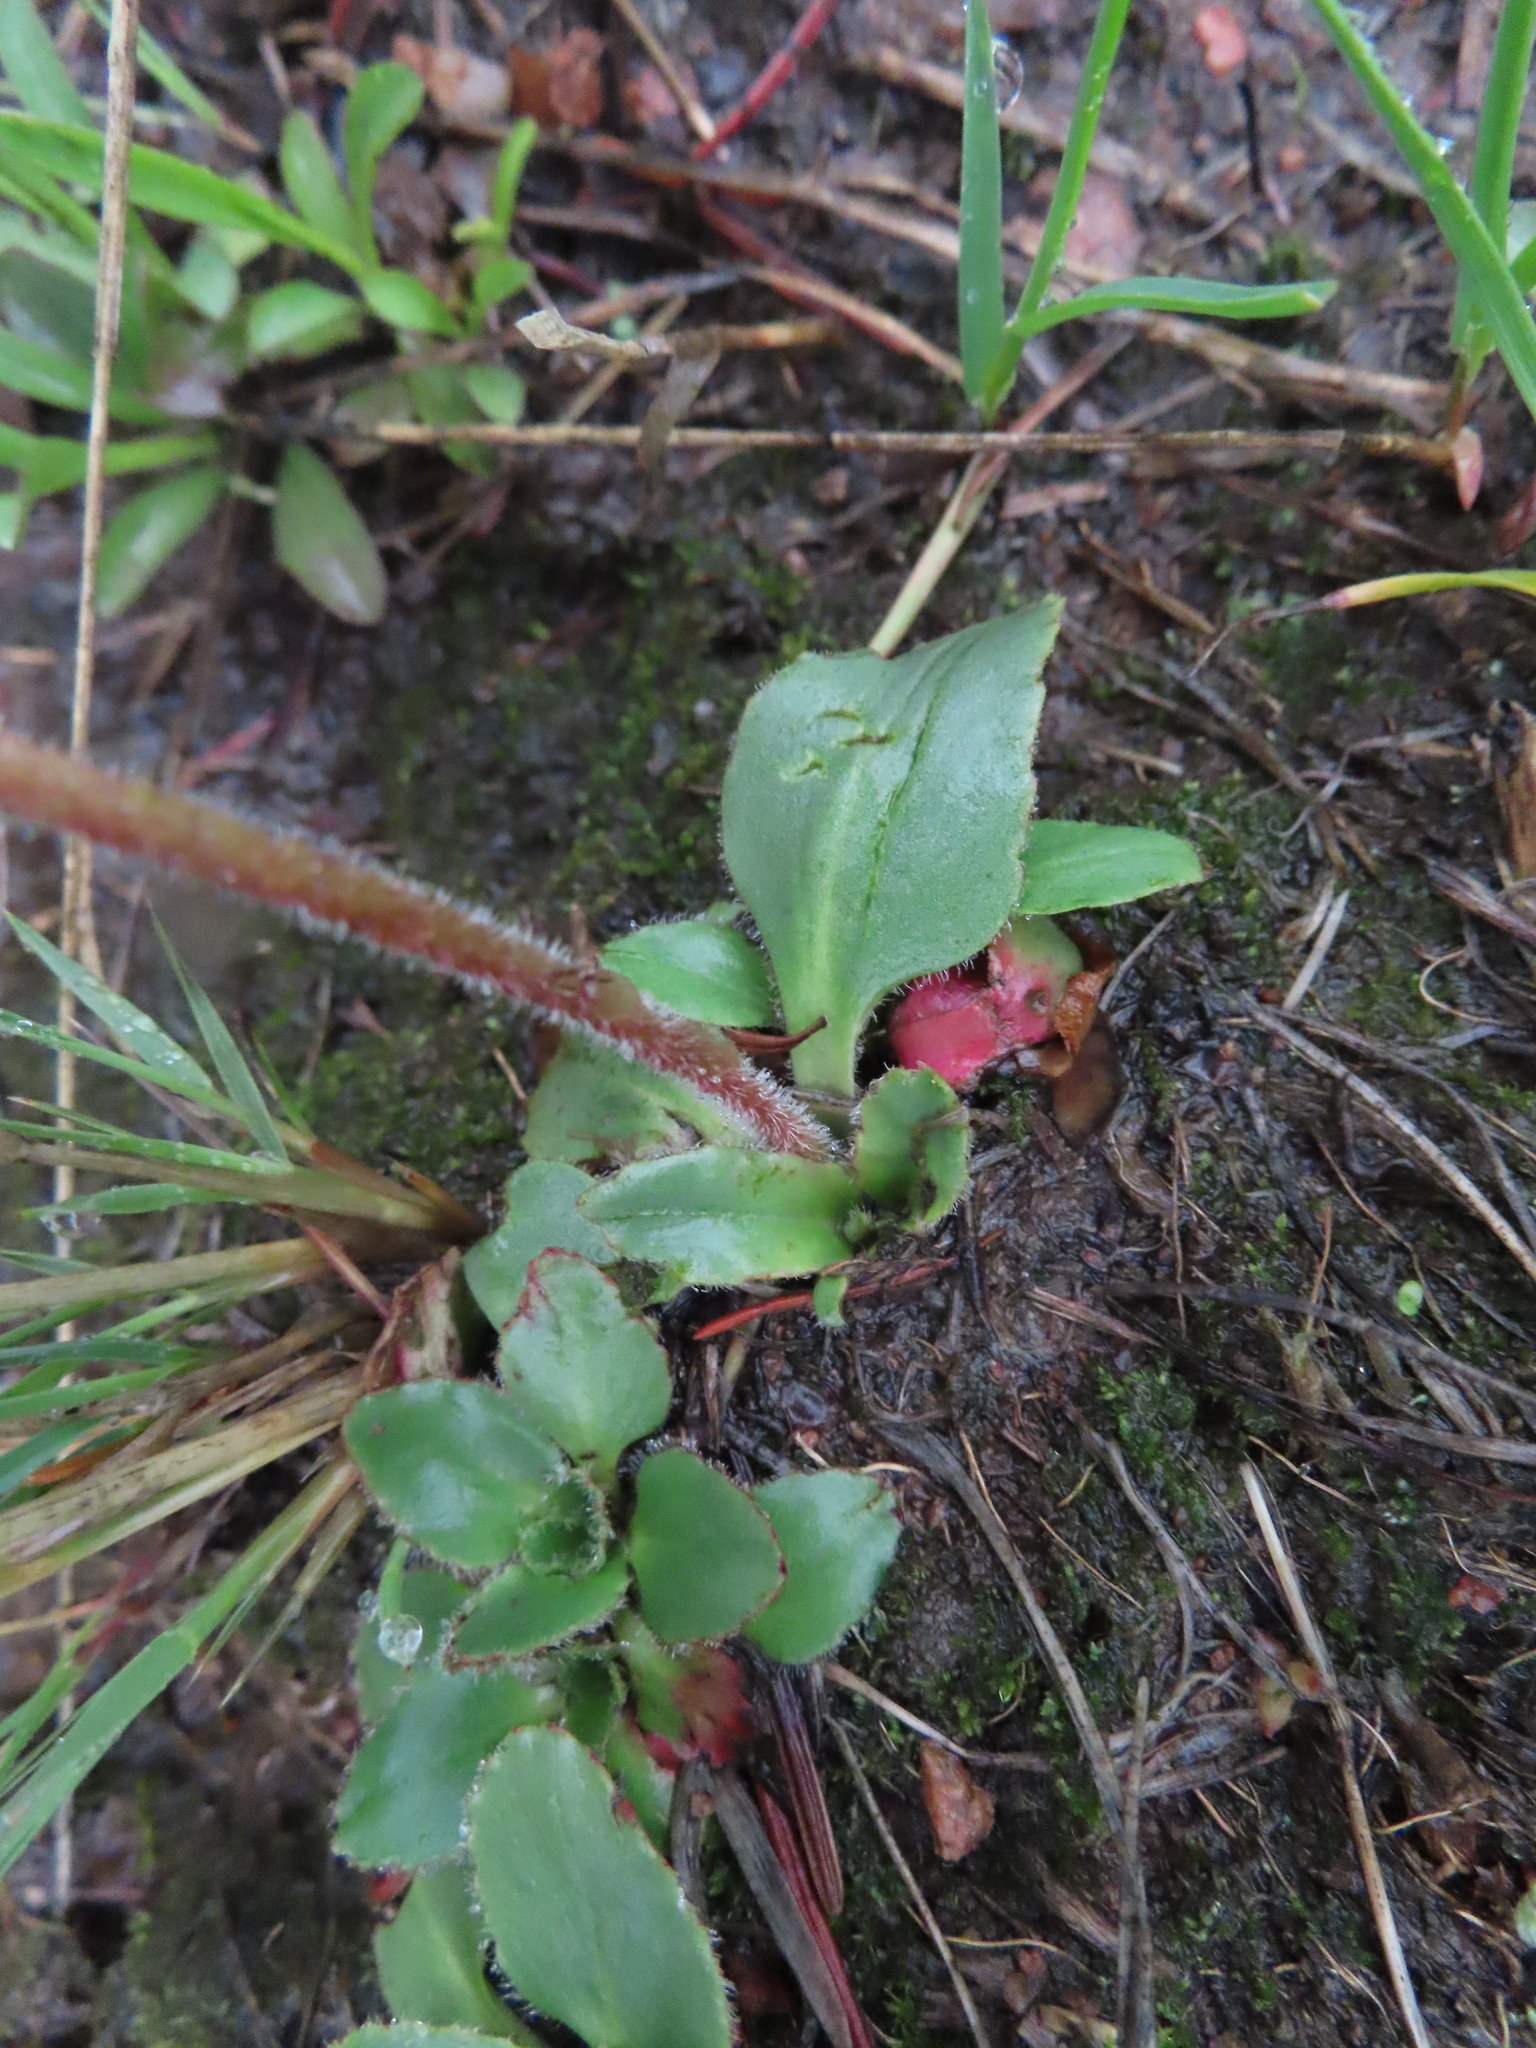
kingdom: Plantae
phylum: Tracheophyta
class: Magnoliopsida
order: Saxifragales
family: Saxifragaceae
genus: Micranthes
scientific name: Micranthes rhomboidea
